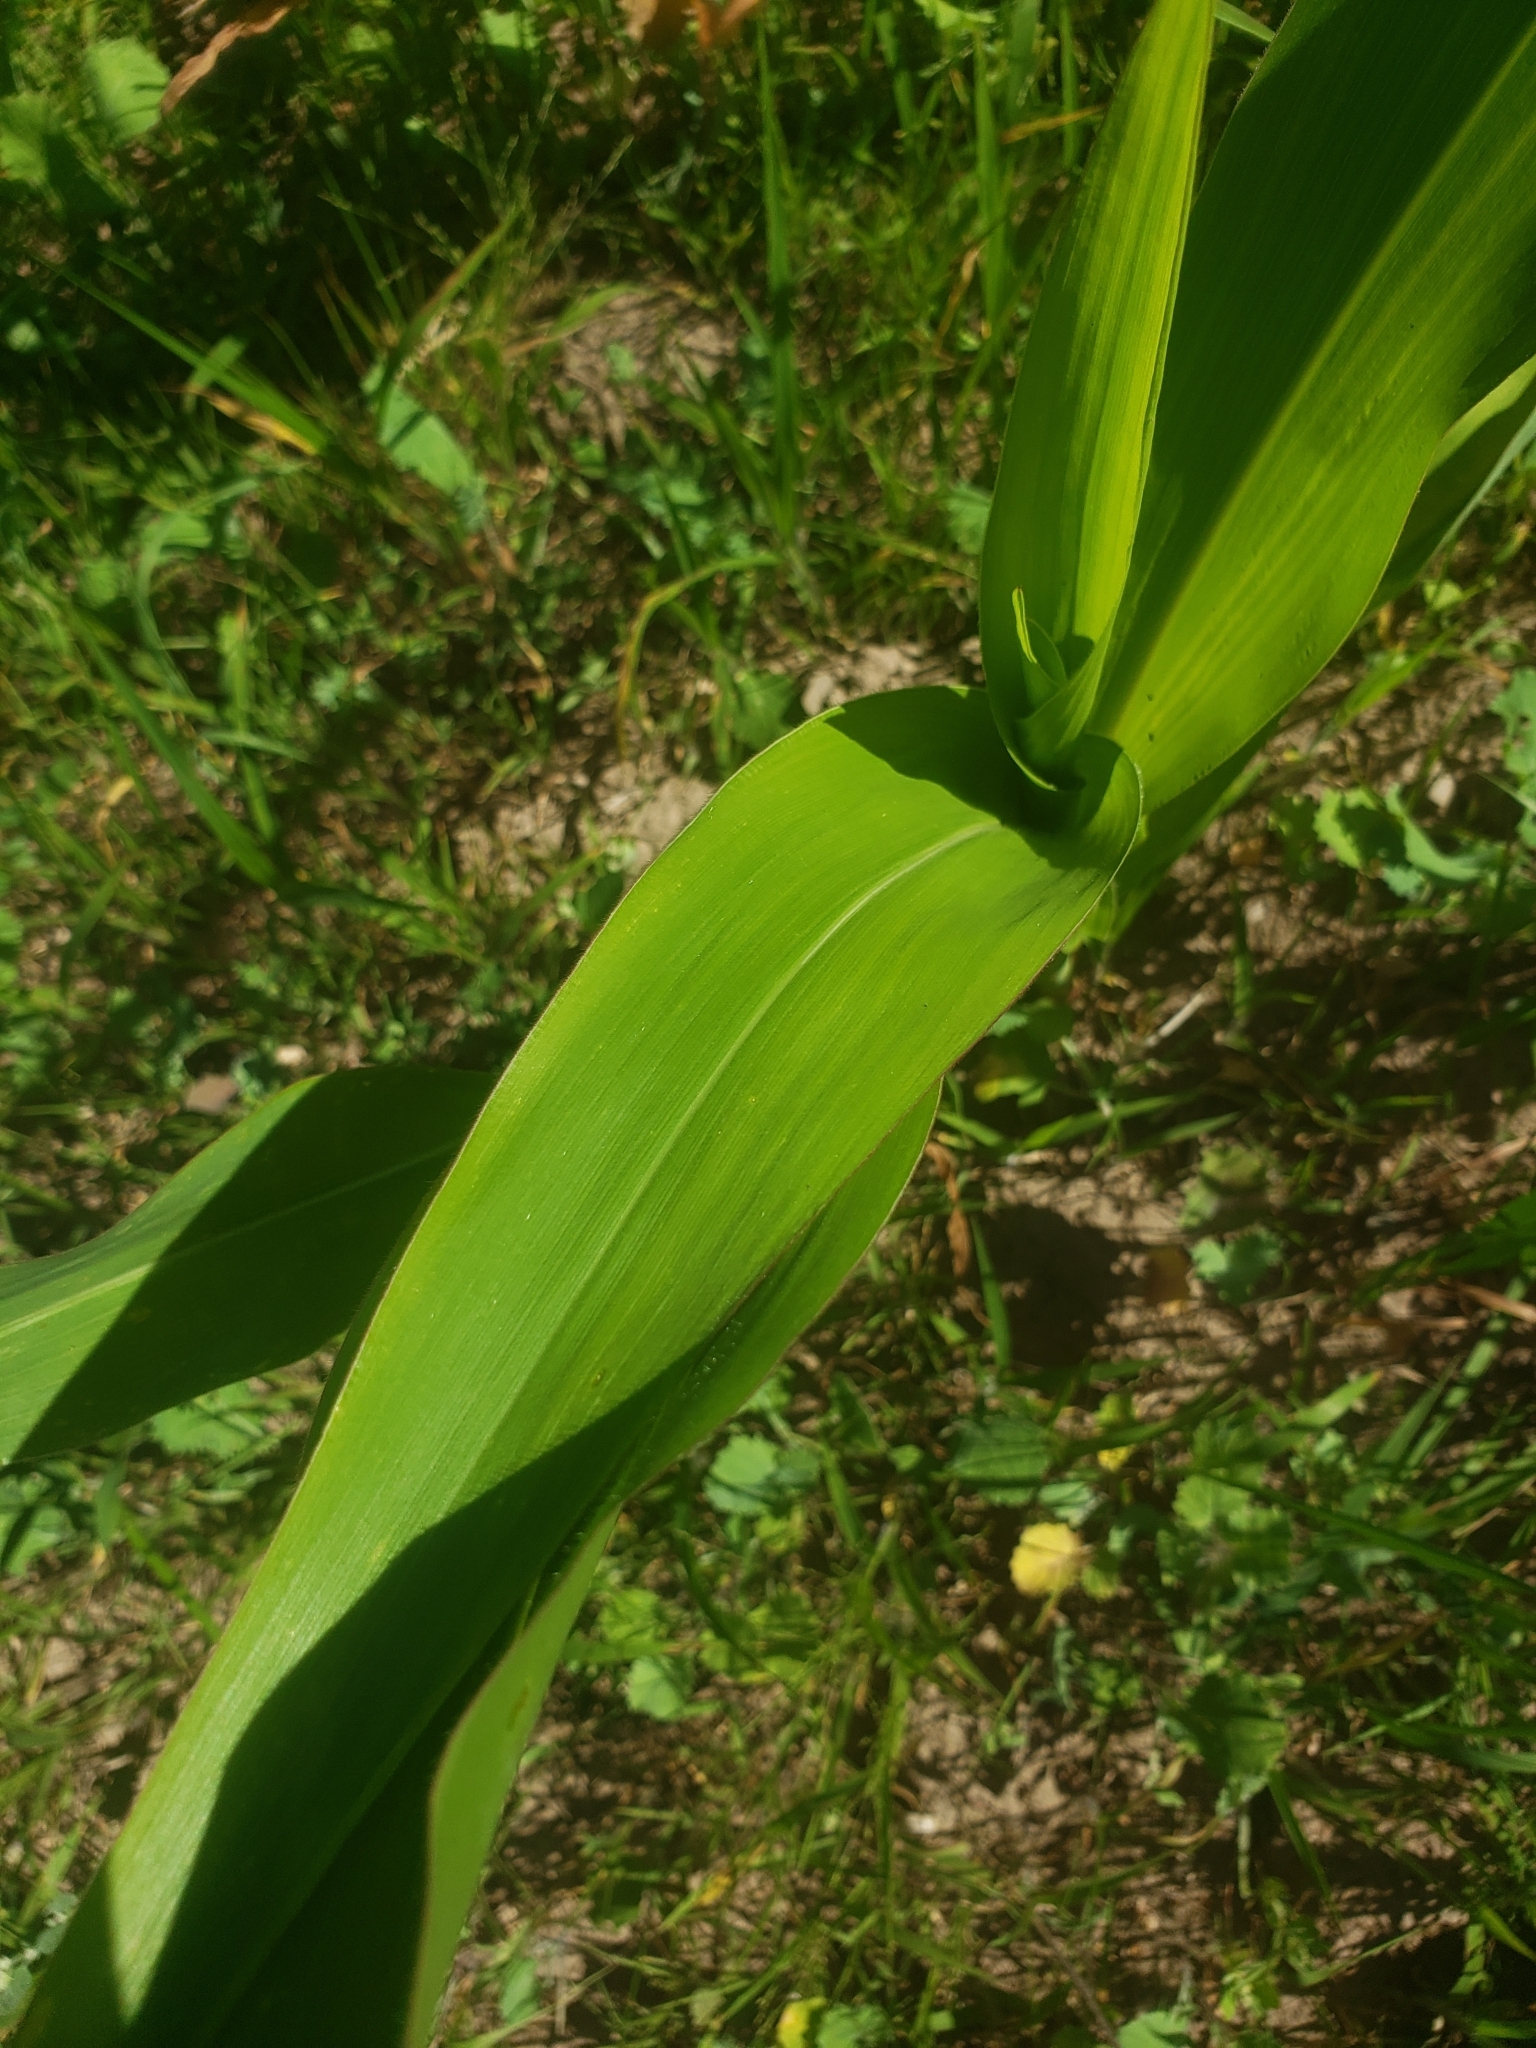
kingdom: Plantae
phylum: Tracheophyta
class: Liliopsida
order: Poales
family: Poaceae
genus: Zea
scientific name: Zea mays
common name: Maize
